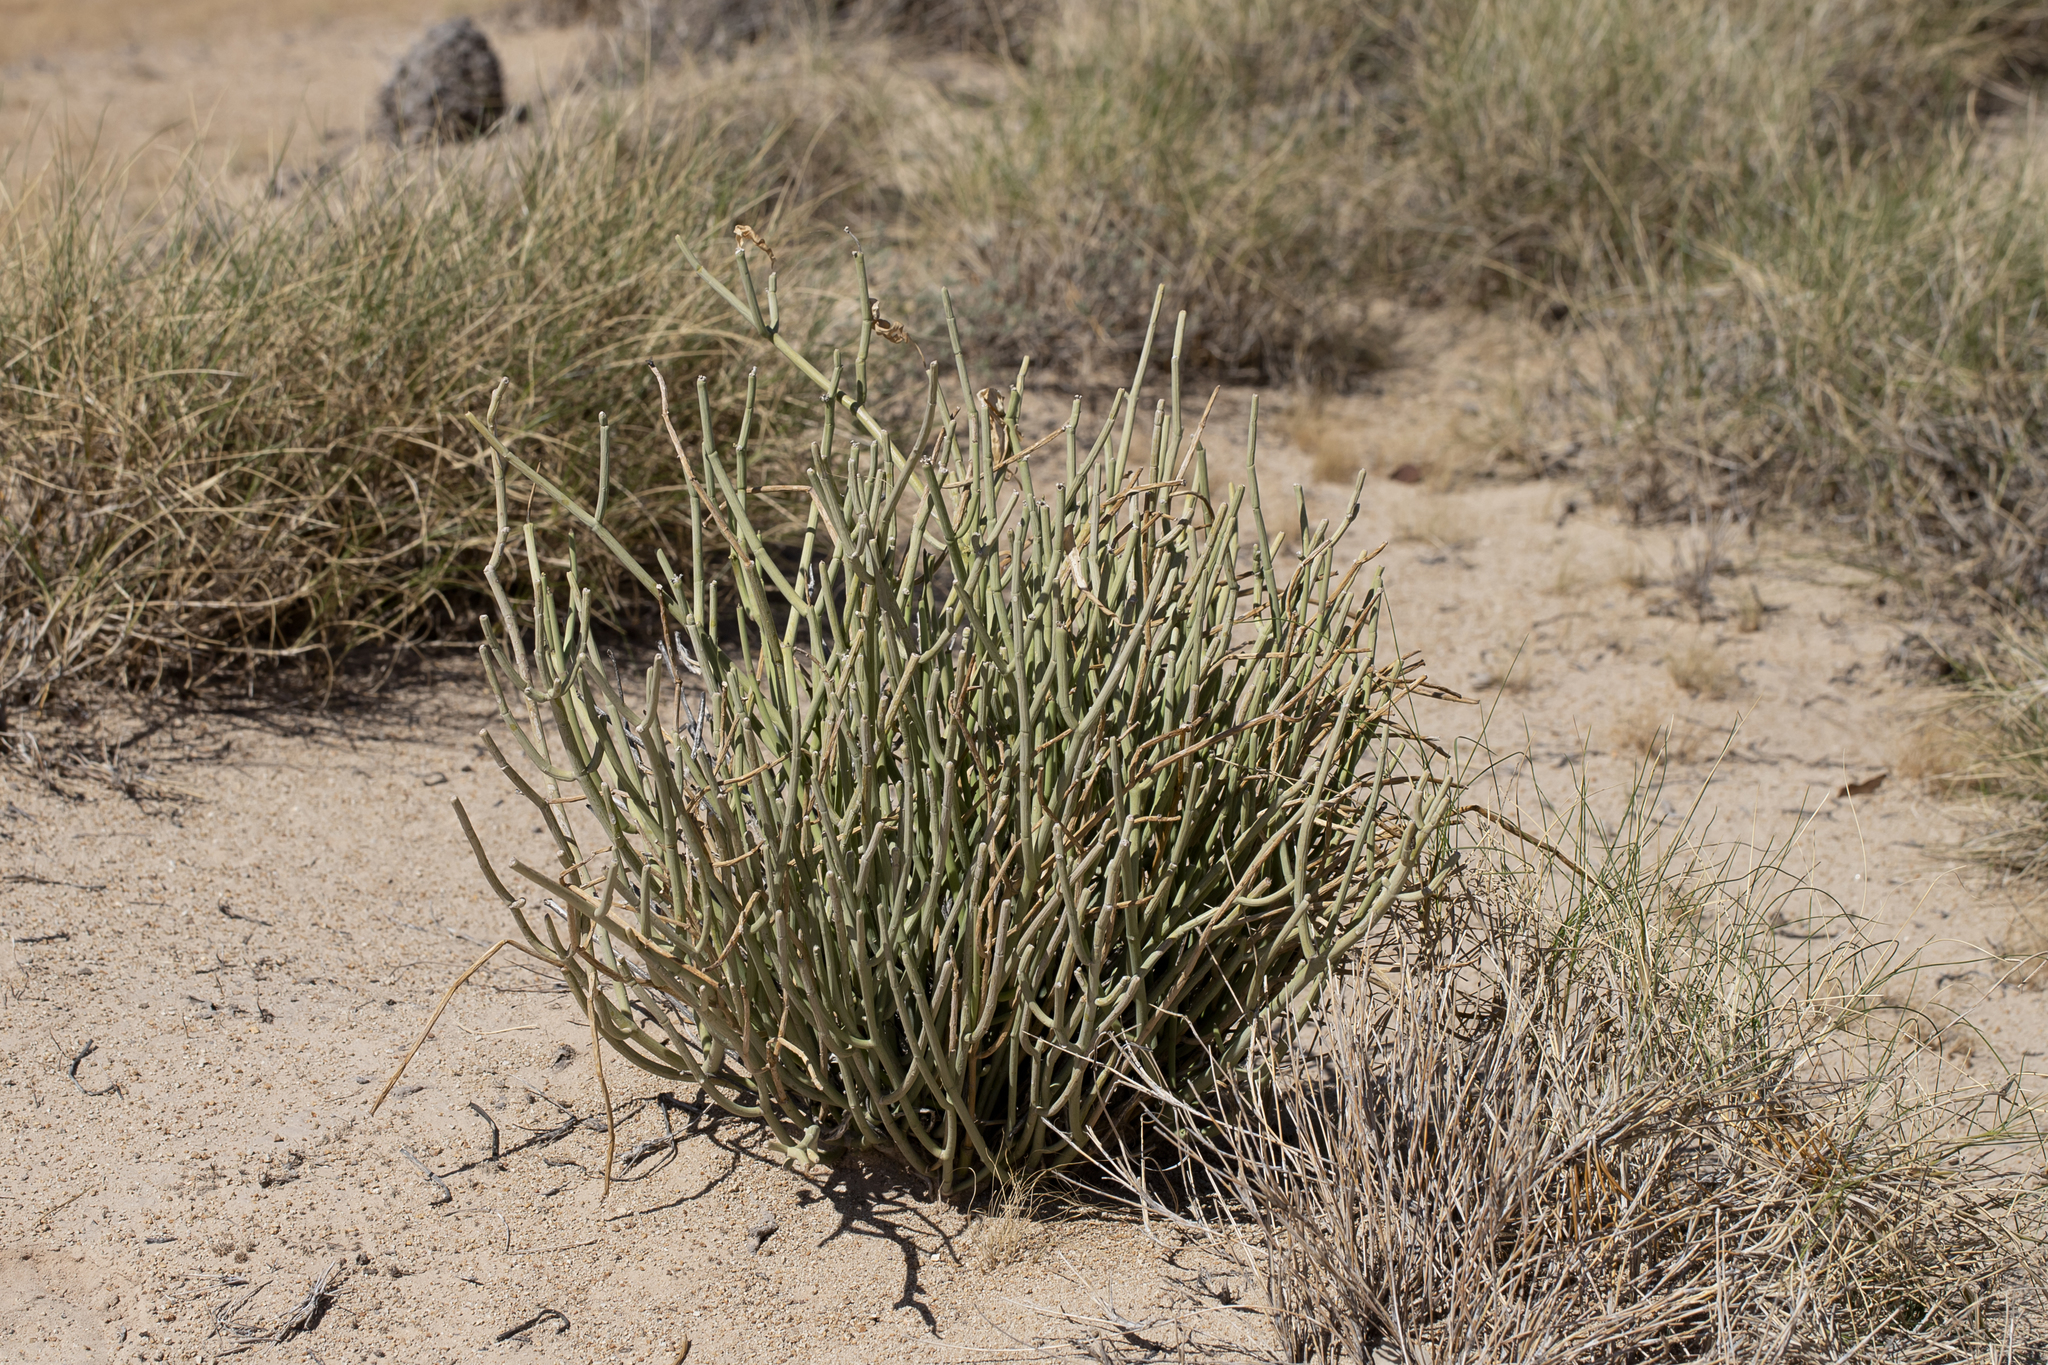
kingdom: Plantae
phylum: Tracheophyta
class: Magnoliopsida
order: Gentianales
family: Apocynaceae
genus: Cynanchum
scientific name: Cynanchum viminale
